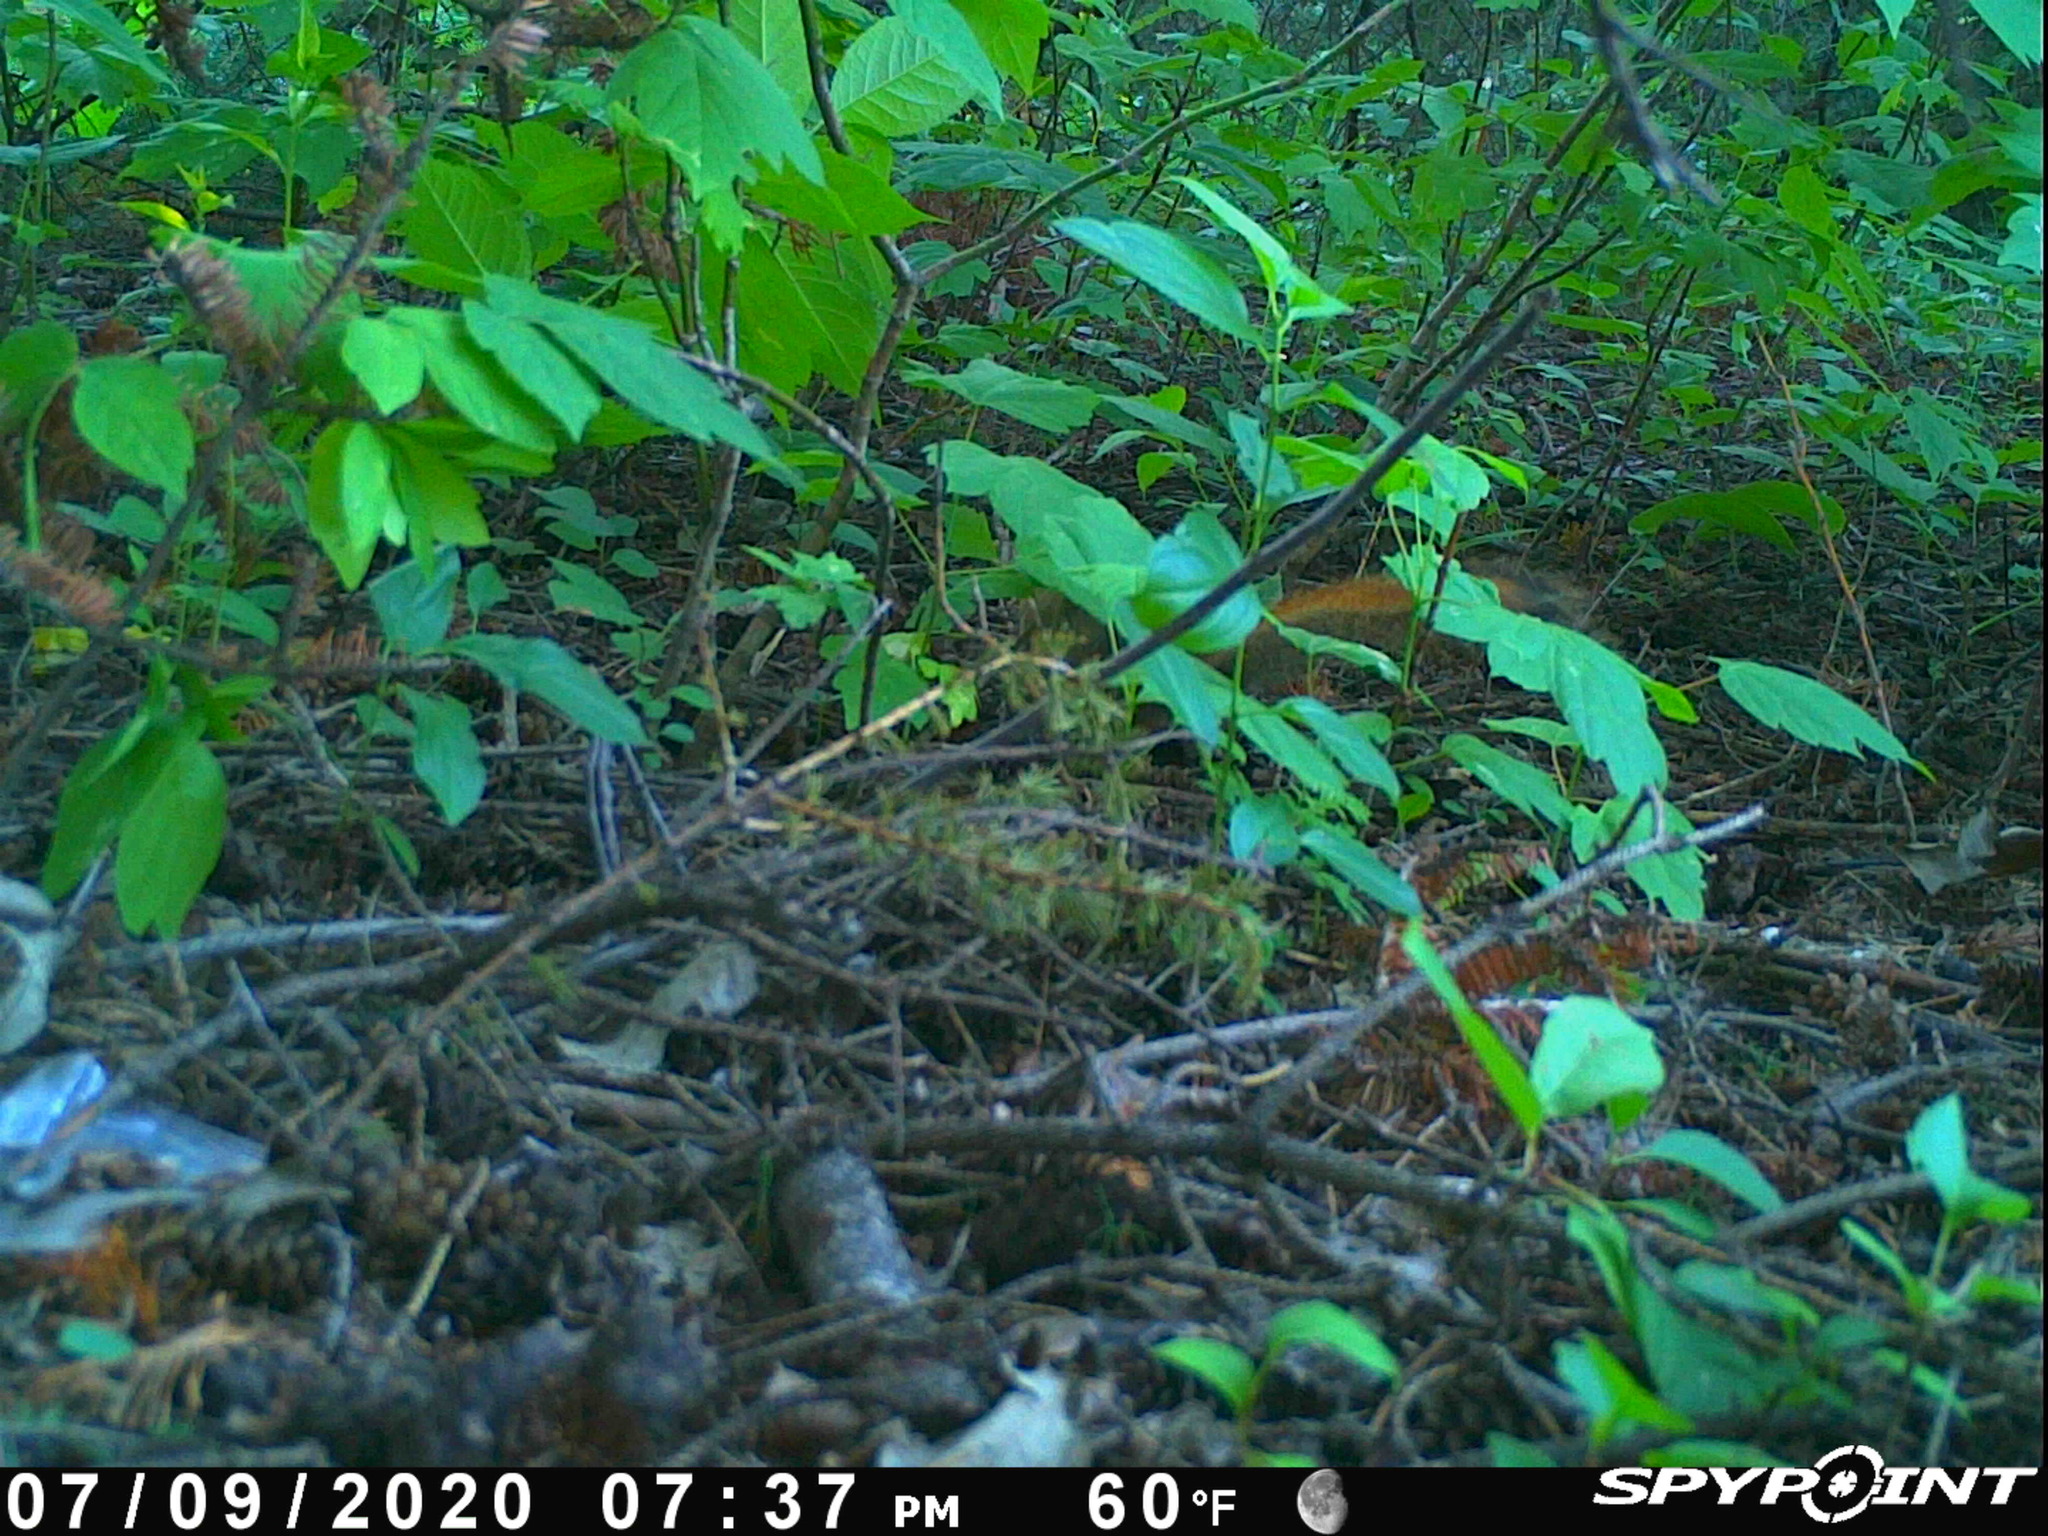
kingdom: Animalia
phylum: Chordata
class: Mammalia
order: Rodentia
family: Sciuridae
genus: Tamiasciurus
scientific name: Tamiasciurus hudsonicus
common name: Red squirrel
